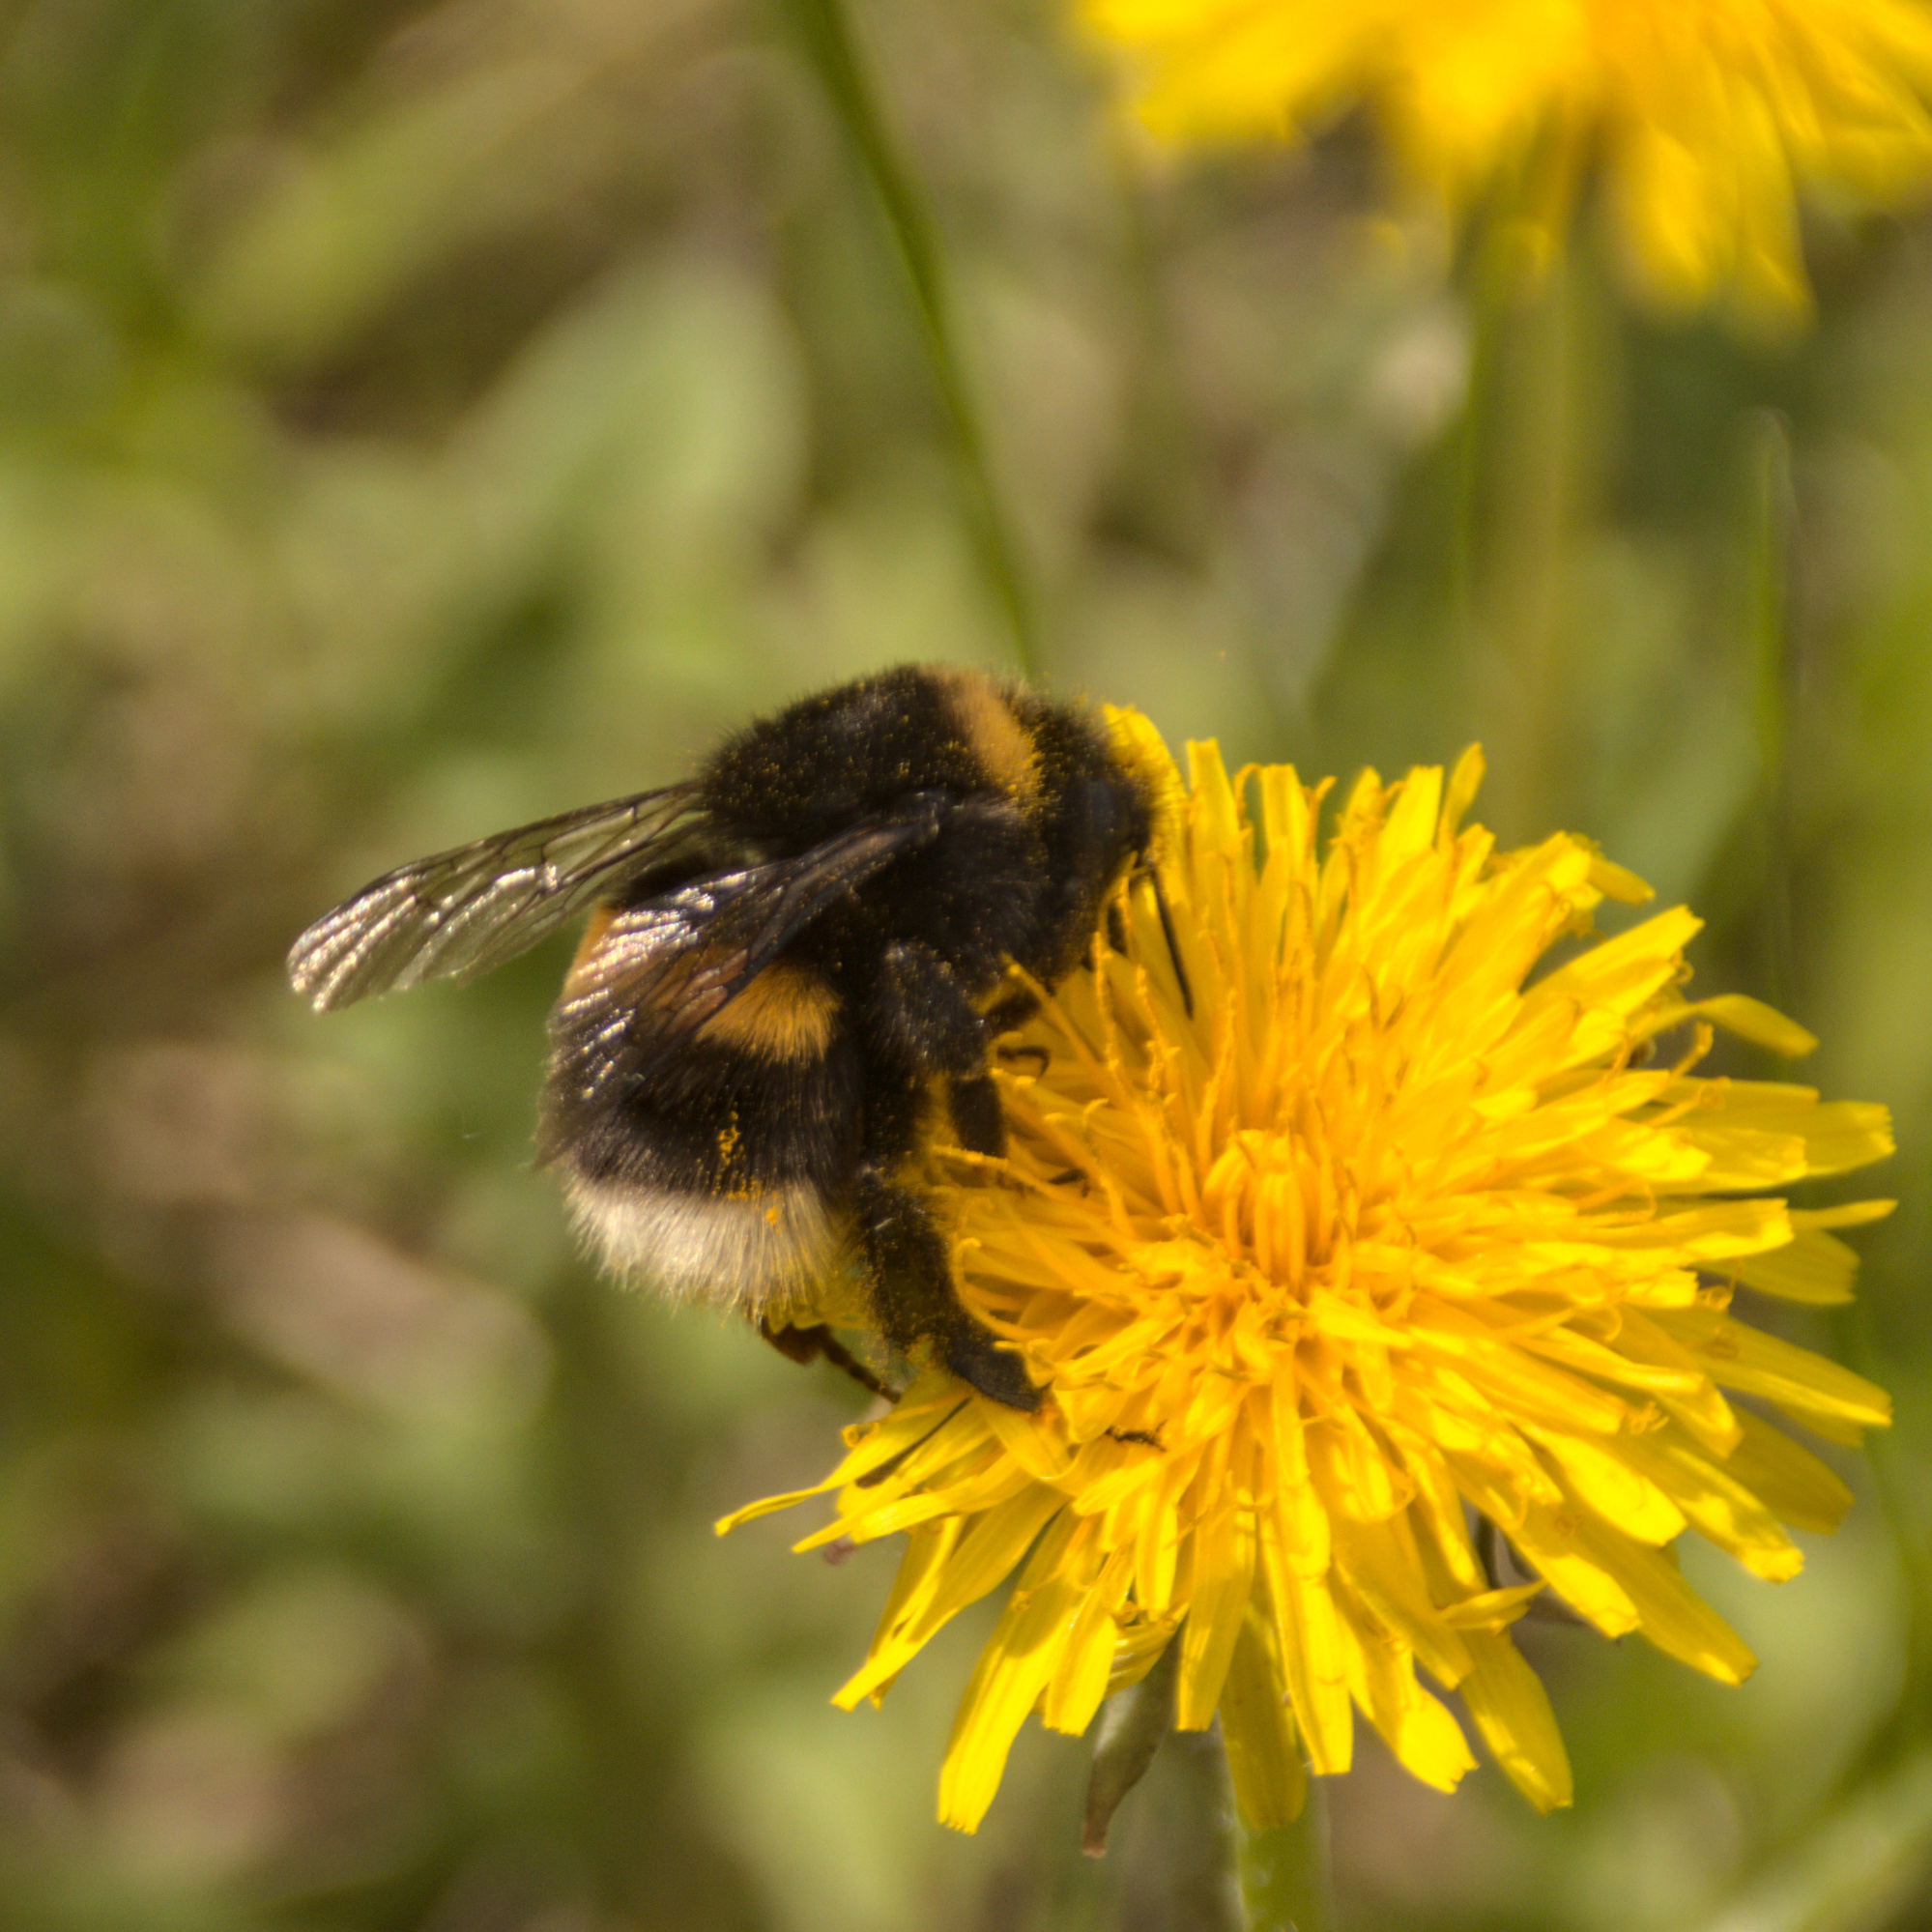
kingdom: Animalia
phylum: Arthropoda
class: Insecta
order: Hymenoptera
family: Apidae
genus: Bombus
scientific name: Bombus
